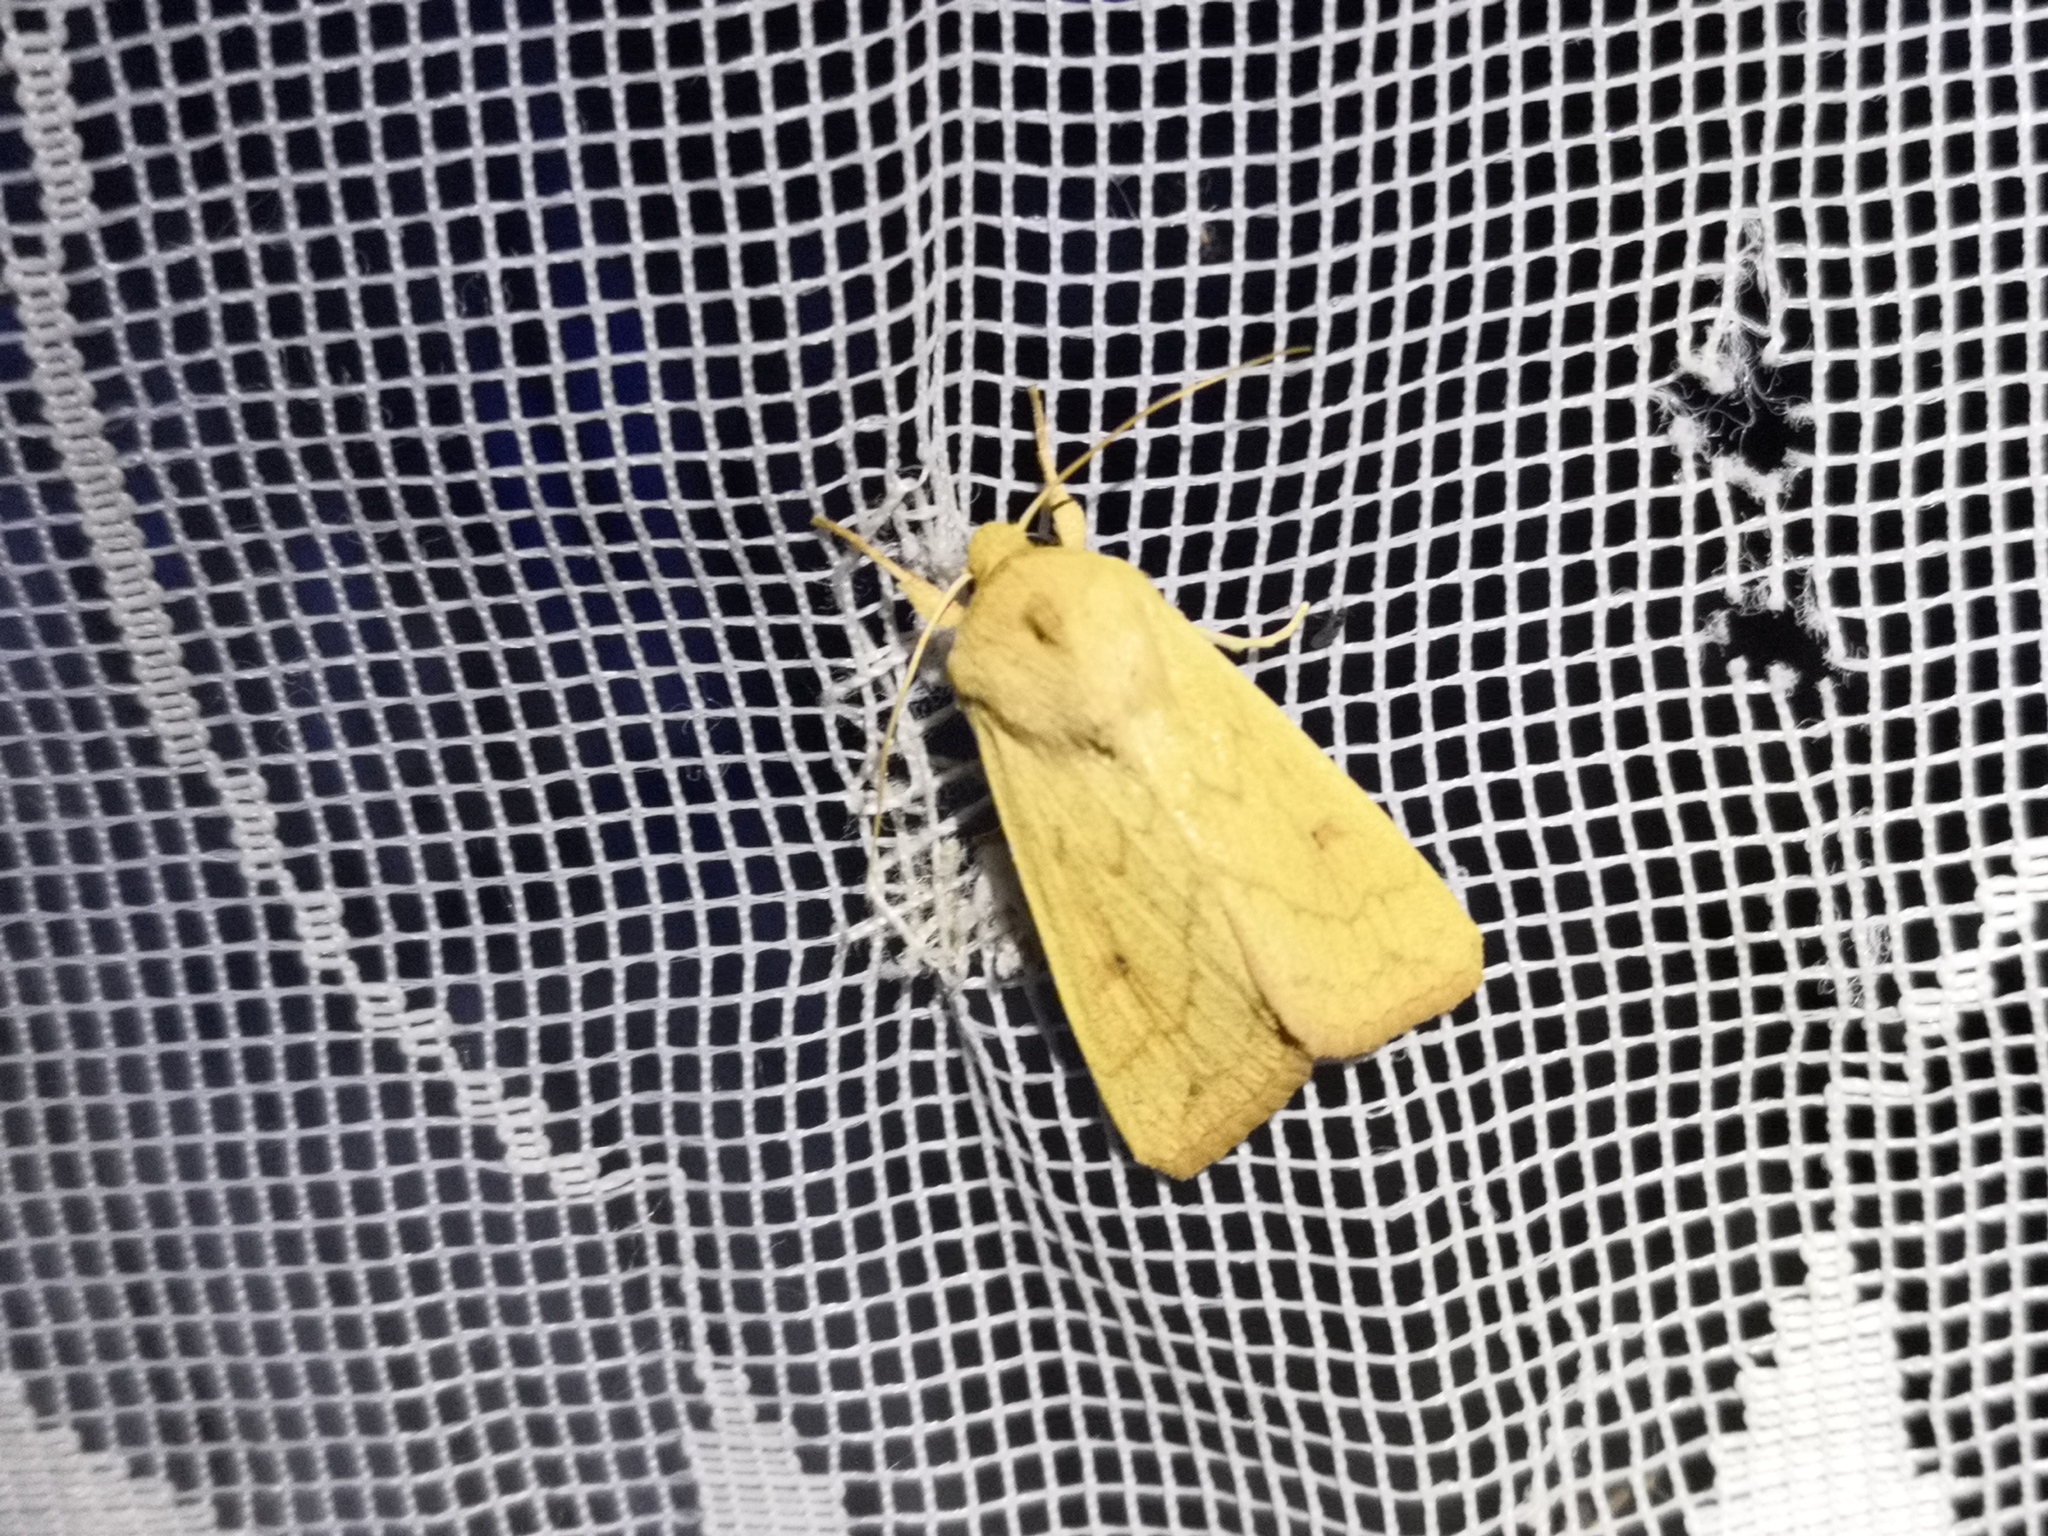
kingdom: Animalia
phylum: Arthropoda
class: Insecta
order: Lepidoptera
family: Noctuidae
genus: Mythimna
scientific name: Mythimna vitellina
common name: Delicate
